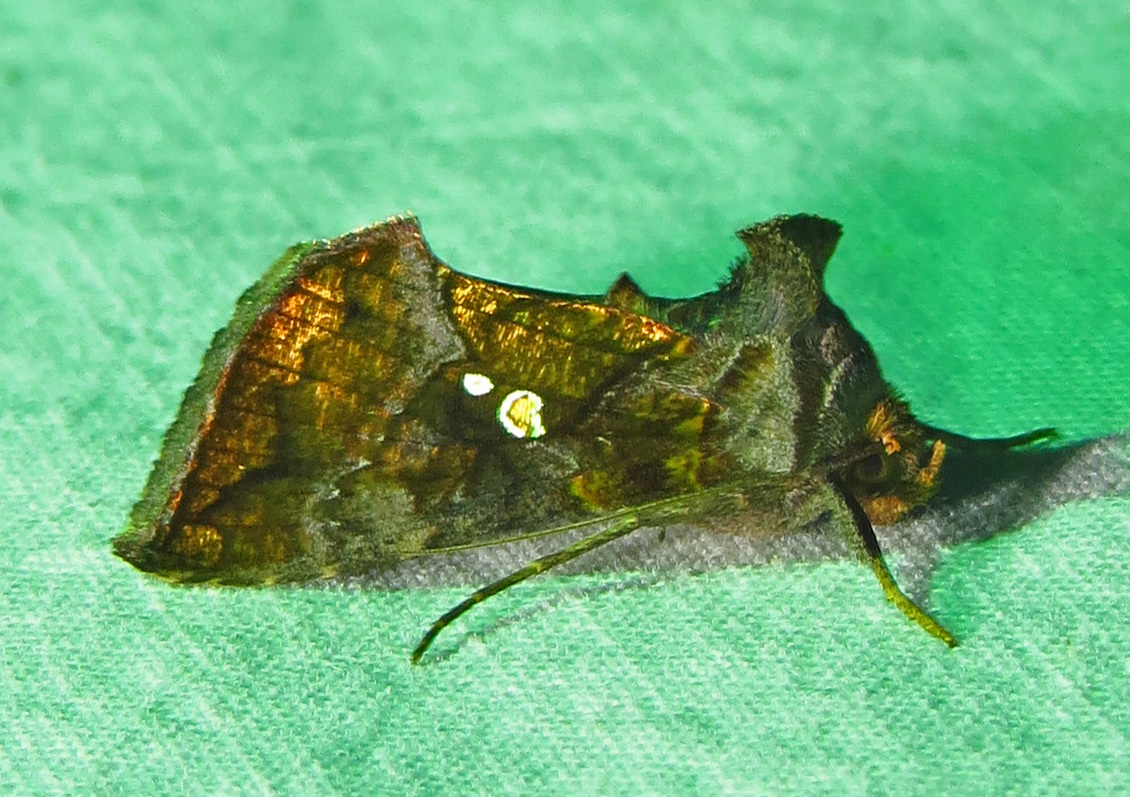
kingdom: Animalia
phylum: Arthropoda
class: Insecta
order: Lepidoptera
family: Noctuidae
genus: Argyrogramma
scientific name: Argyrogramma verruca
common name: Golden looper moth
